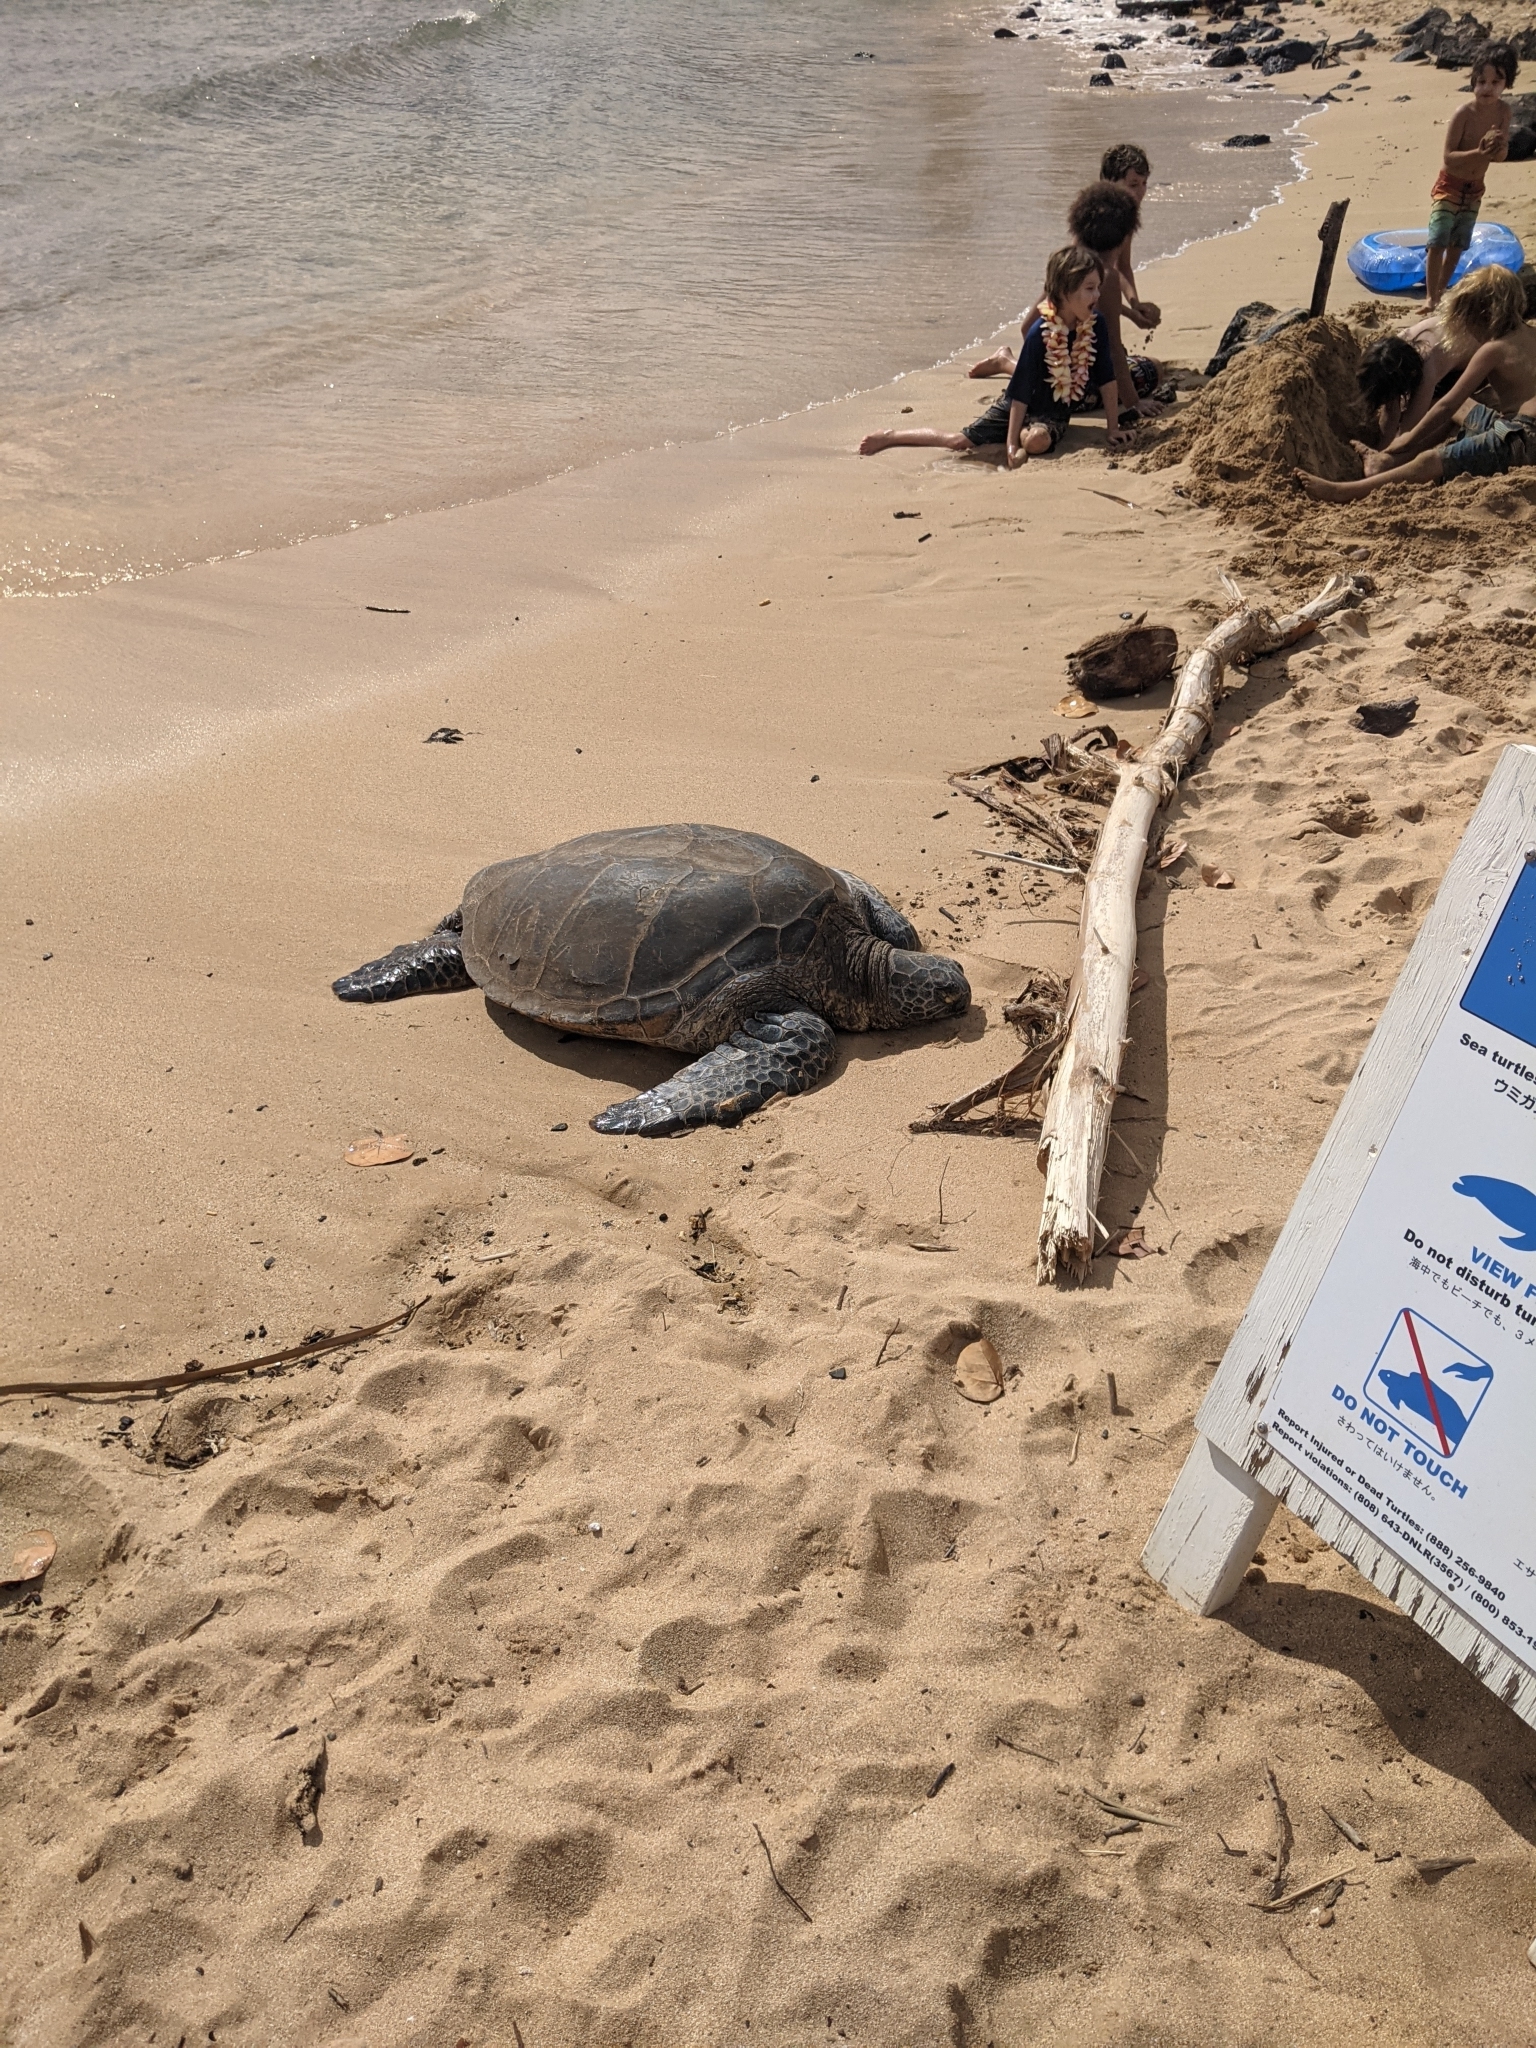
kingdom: Animalia
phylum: Chordata
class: Testudines
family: Cheloniidae
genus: Chelonia
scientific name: Chelonia mydas
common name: Green turtle
